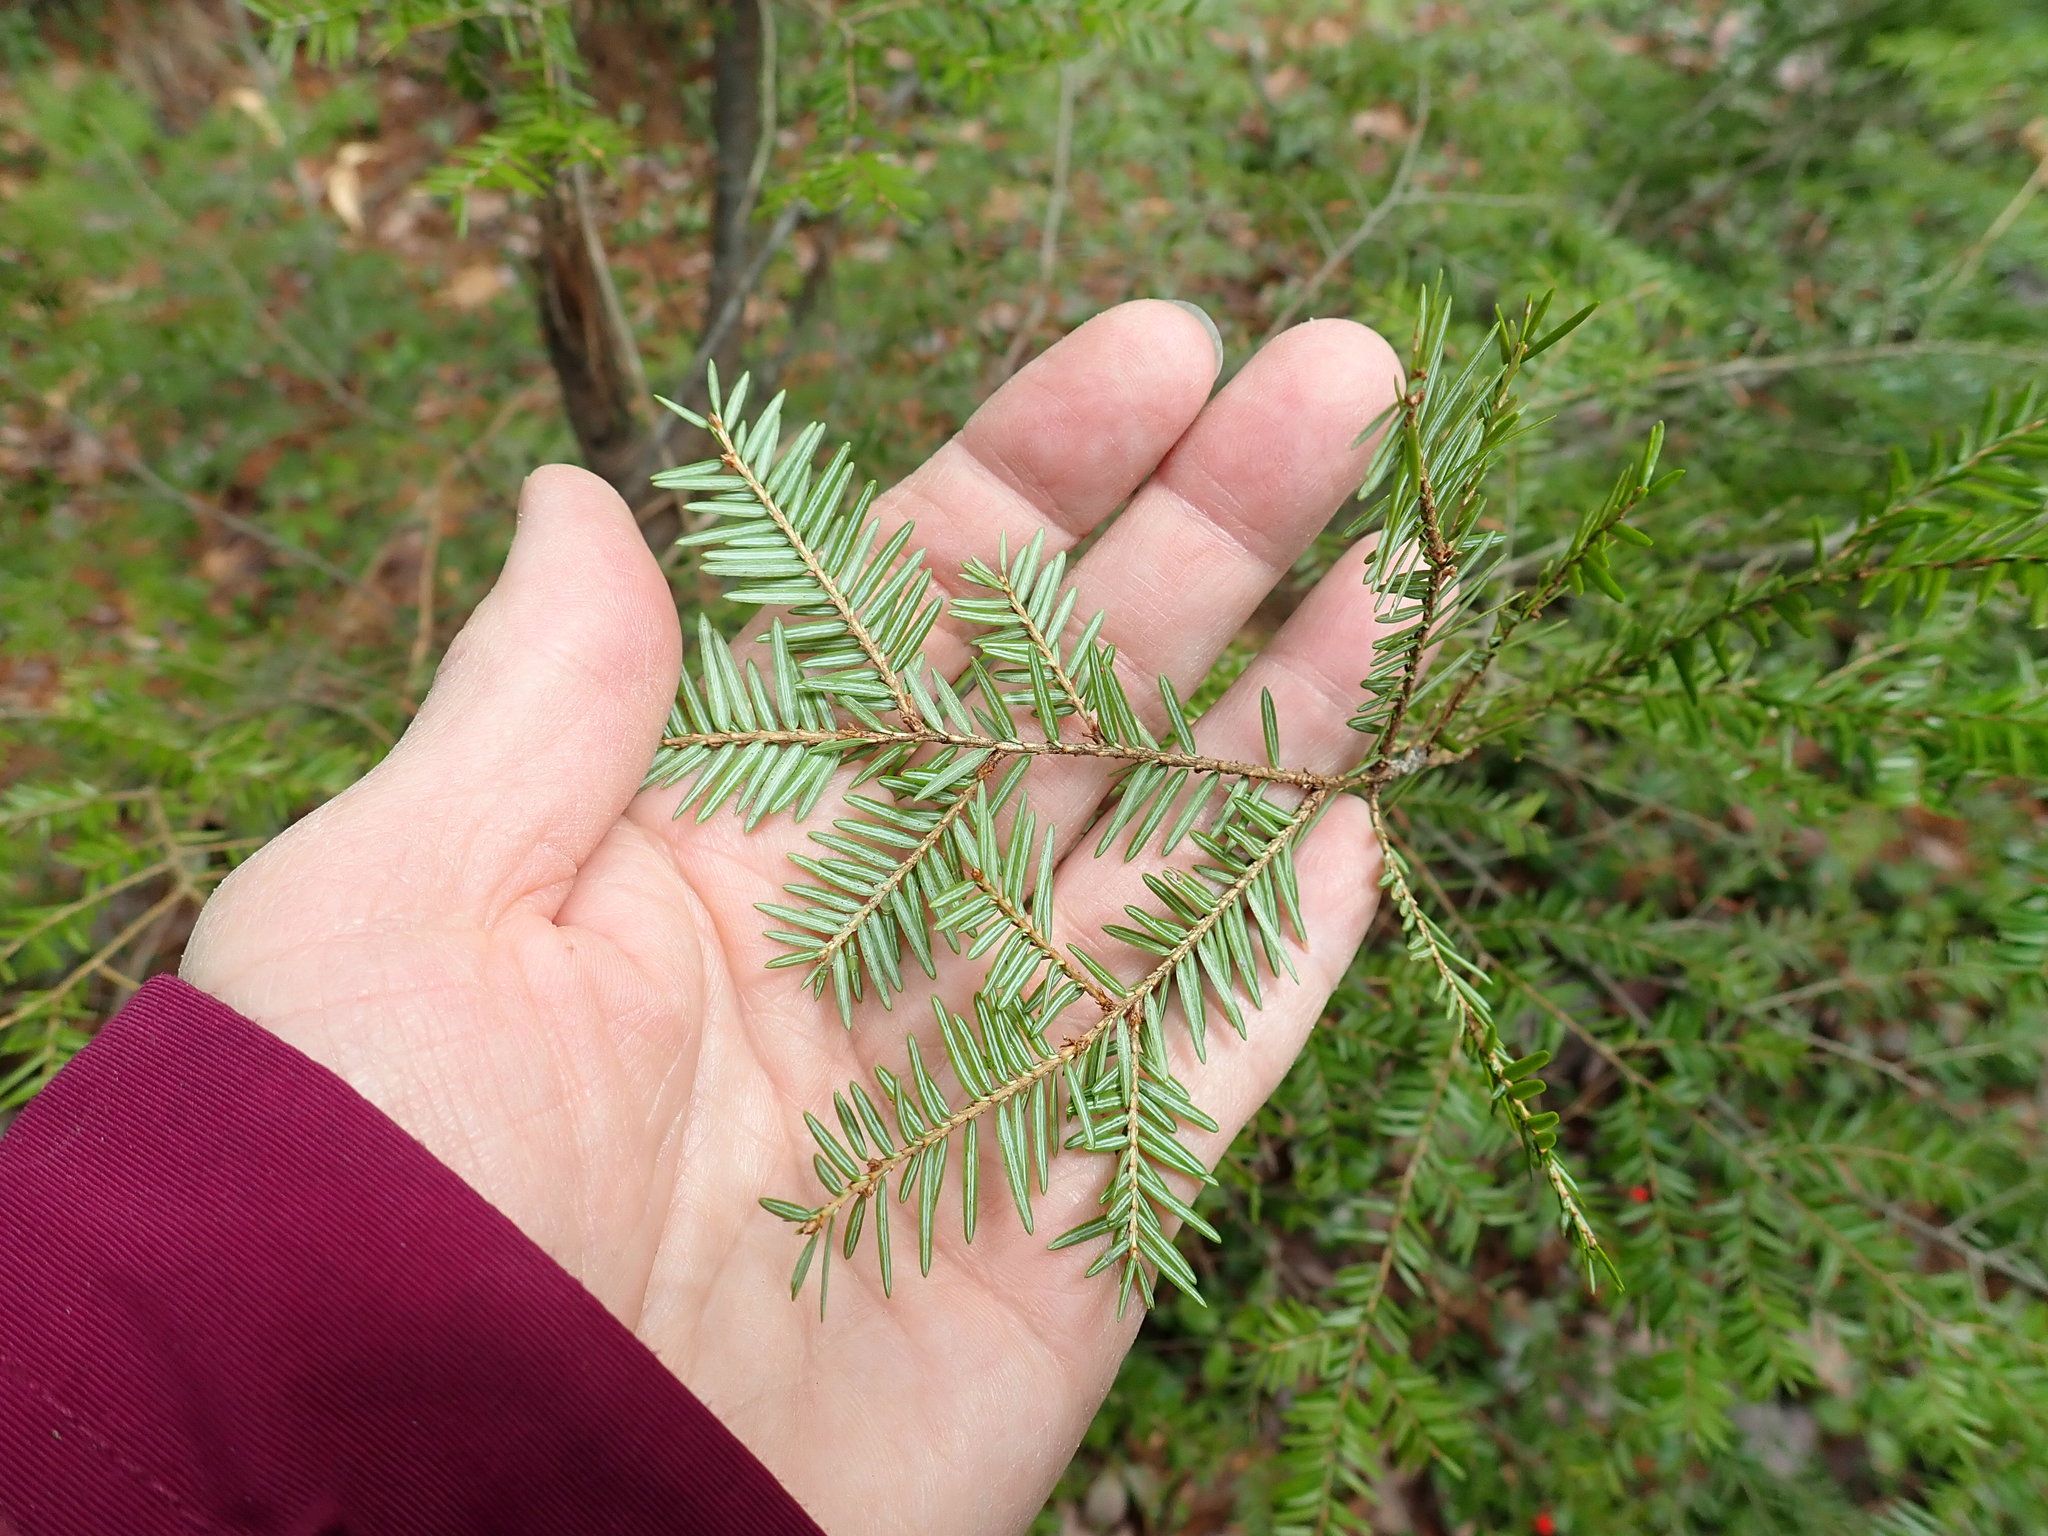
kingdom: Plantae
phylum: Tracheophyta
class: Pinopsida
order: Pinales
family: Pinaceae
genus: Tsuga
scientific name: Tsuga canadensis
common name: Eastern hemlock
